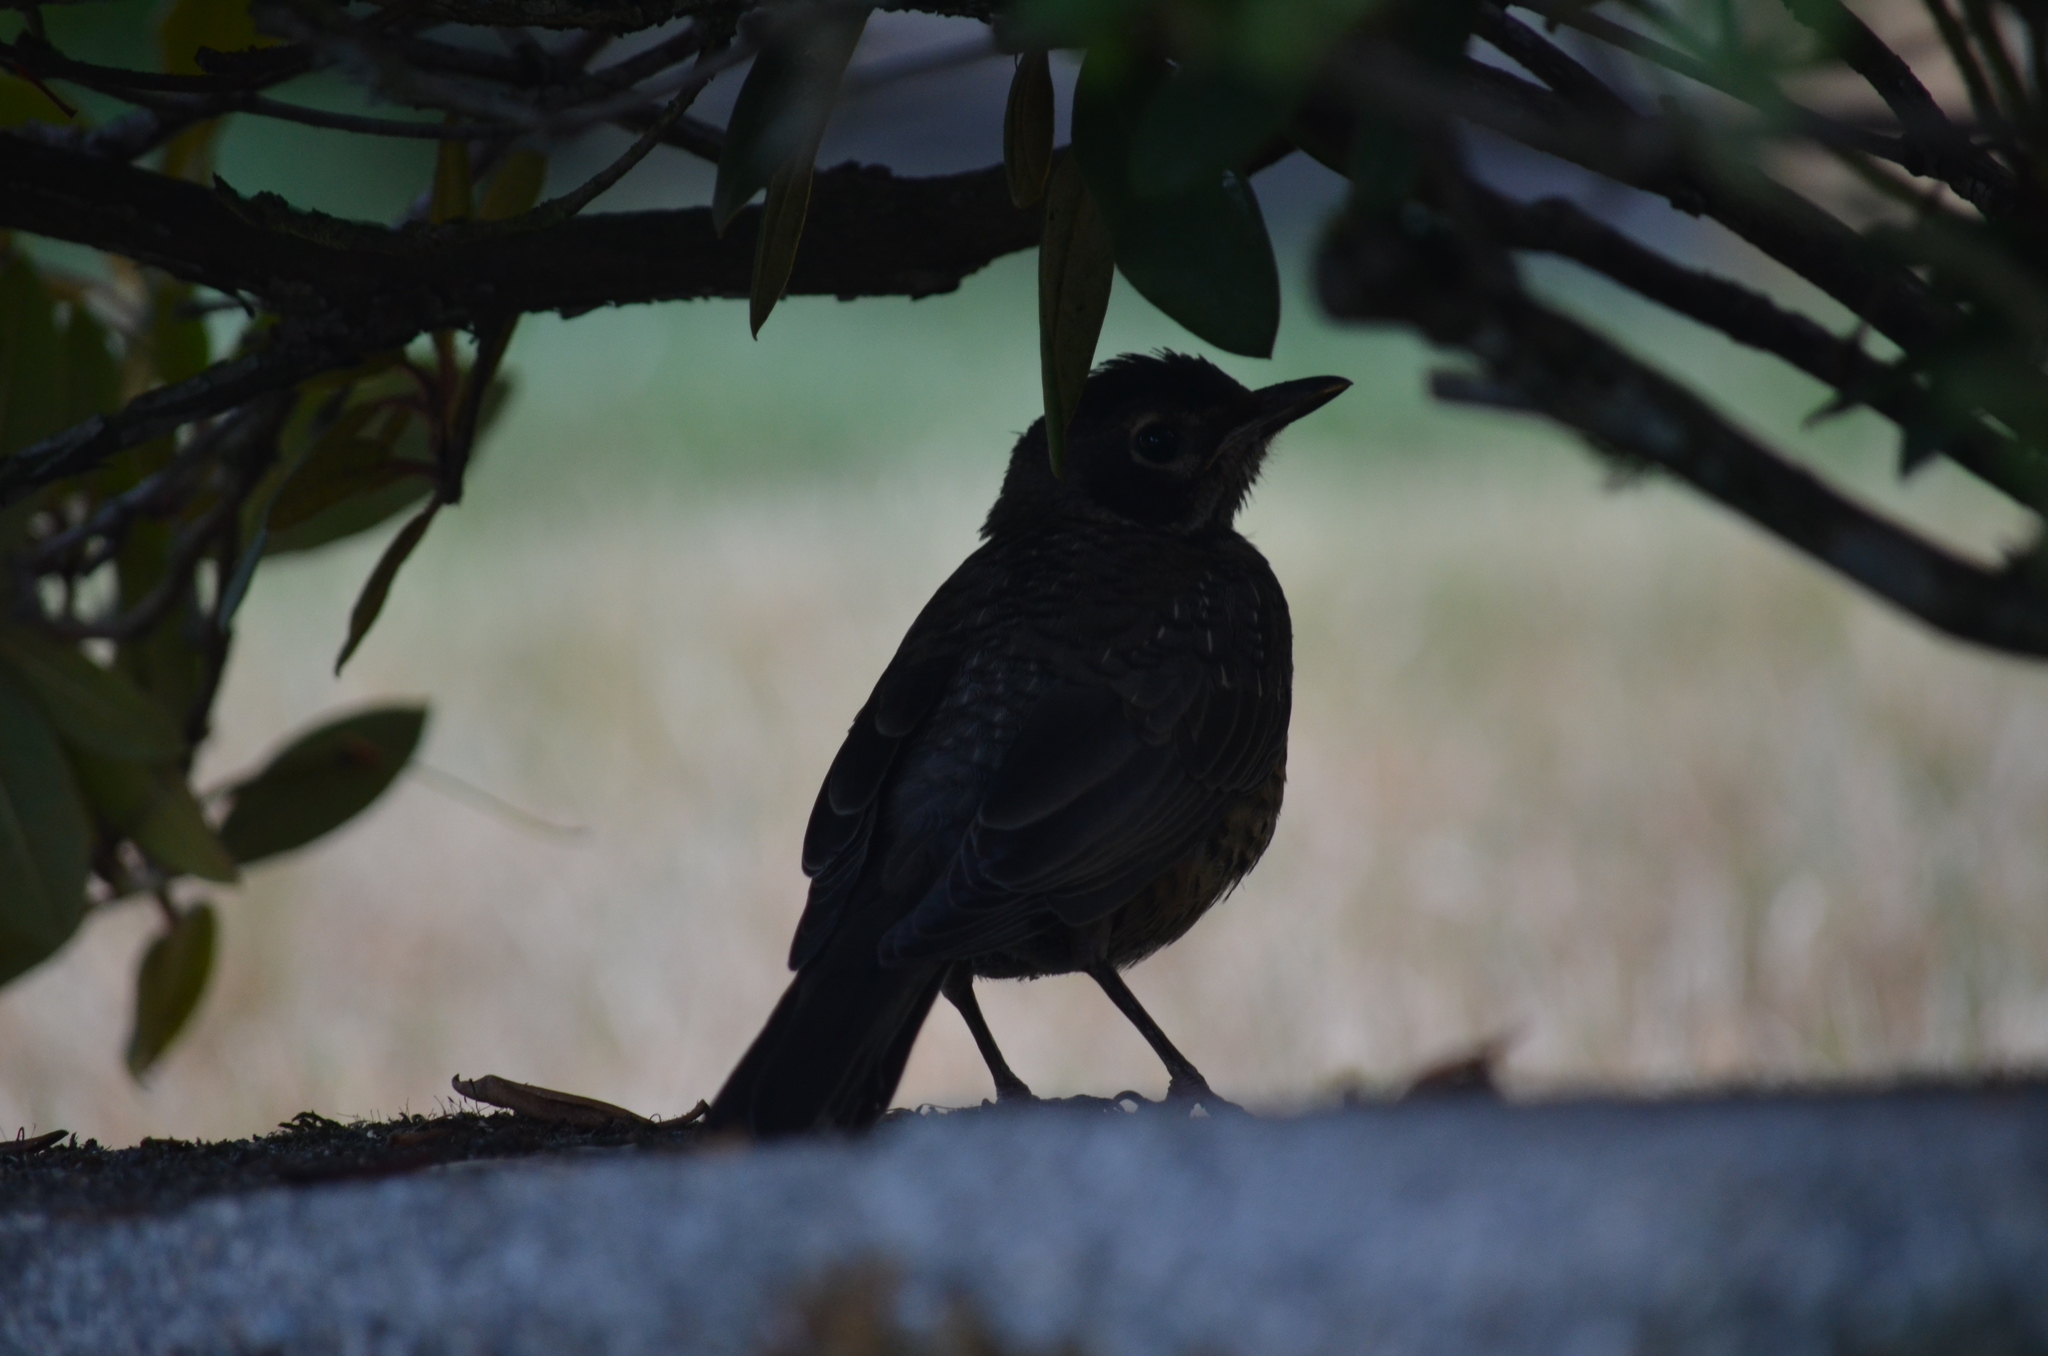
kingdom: Animalia
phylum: Chordata
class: Aves
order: Passeriformes
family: Turdidae
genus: Turdus
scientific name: Turdus migratorius
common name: American robin
